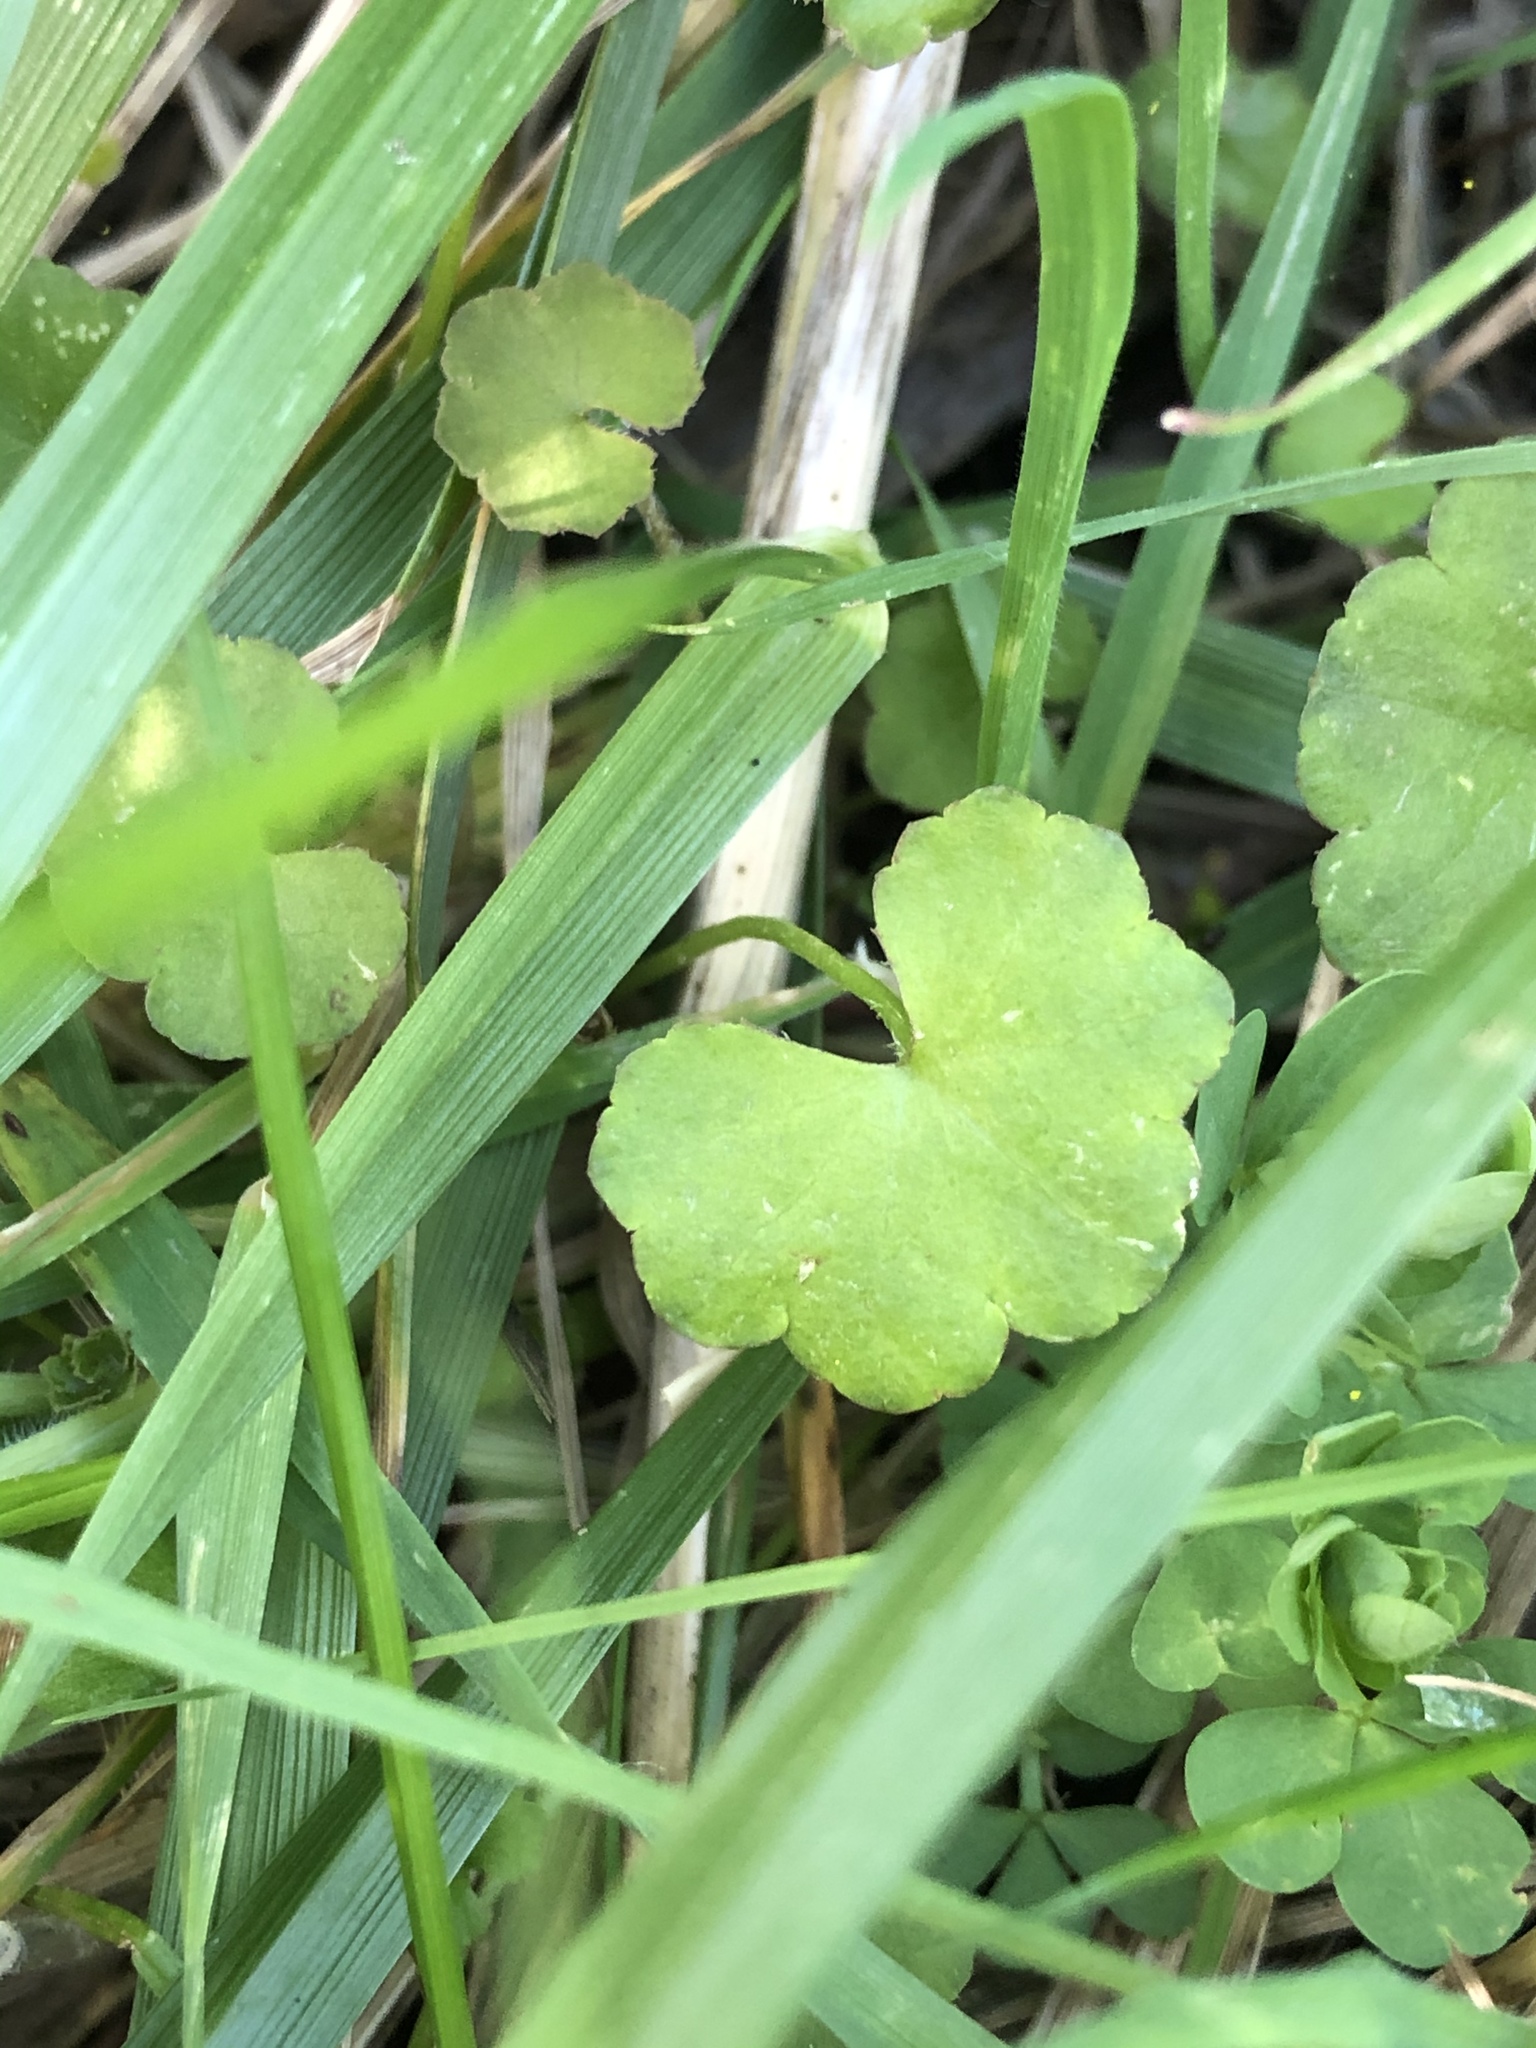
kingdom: Plantae
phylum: Tracheophyta
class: Magnoliopsida
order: Apiales
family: Araliaceae
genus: Hydrocotyle
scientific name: Hydrocotyle novae-zeelandiae
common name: New zealand pennywort
